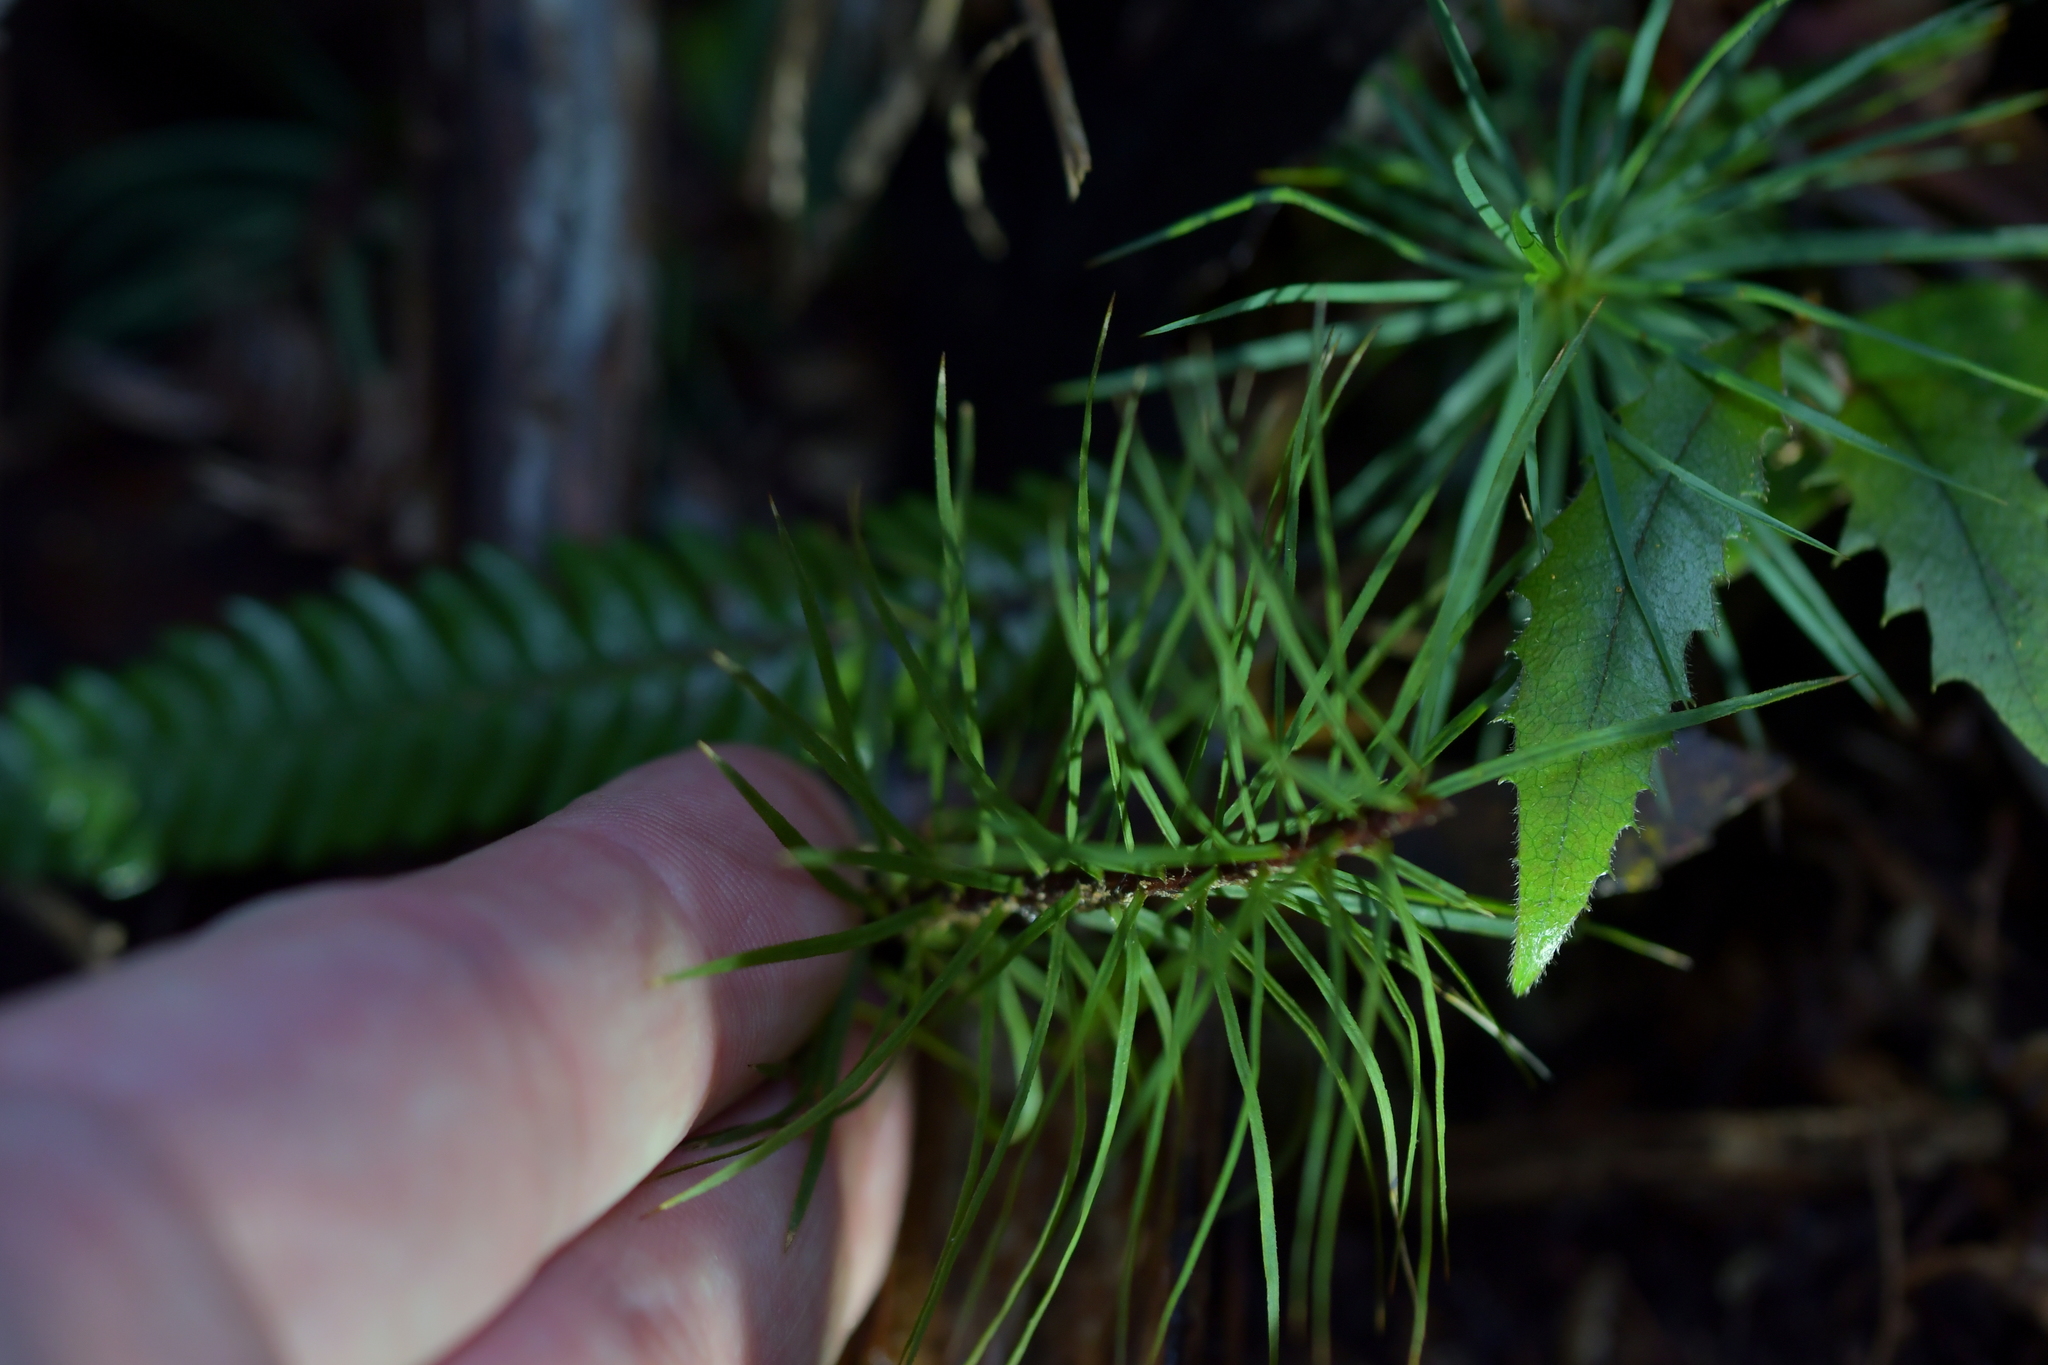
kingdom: Plantae
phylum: Bryophyta
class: Polytrichopsida
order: Polytrichales
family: Polytrichaceae
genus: Dawsonia
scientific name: Dawsonia superba
